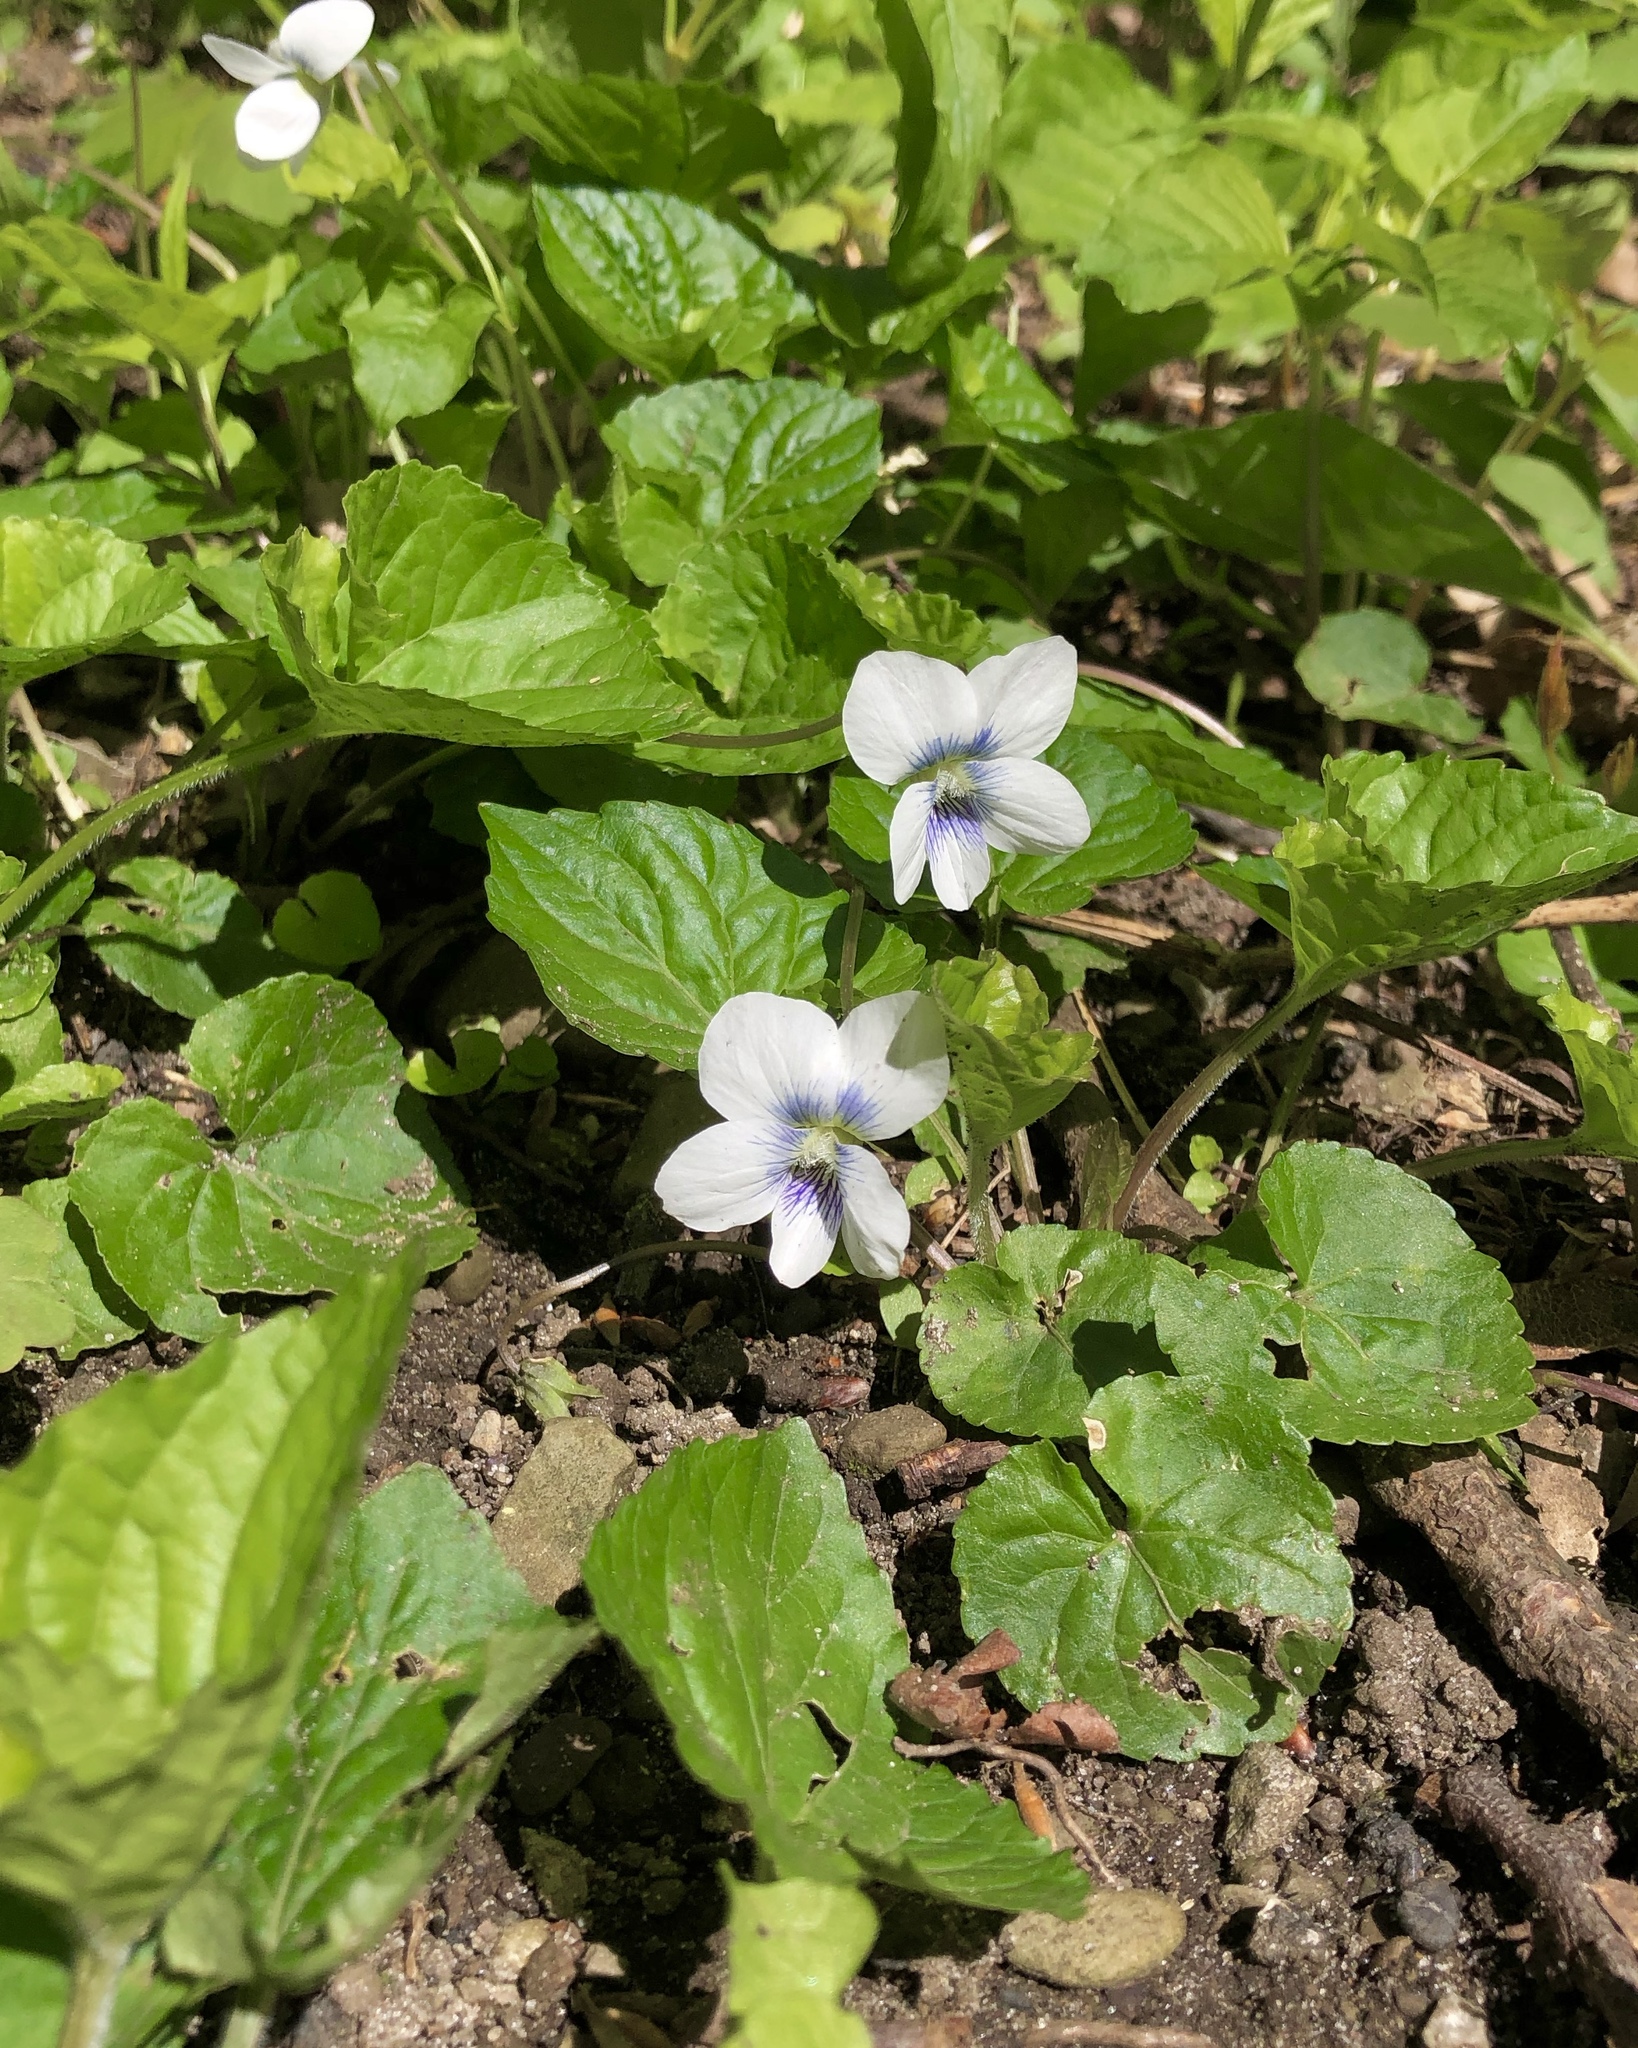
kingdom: Plantae
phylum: Tracheophyta
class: Magnoliopsida
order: Malpighiales
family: Violaceae
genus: Viola
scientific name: Viola sororia
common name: Dooryard violet
